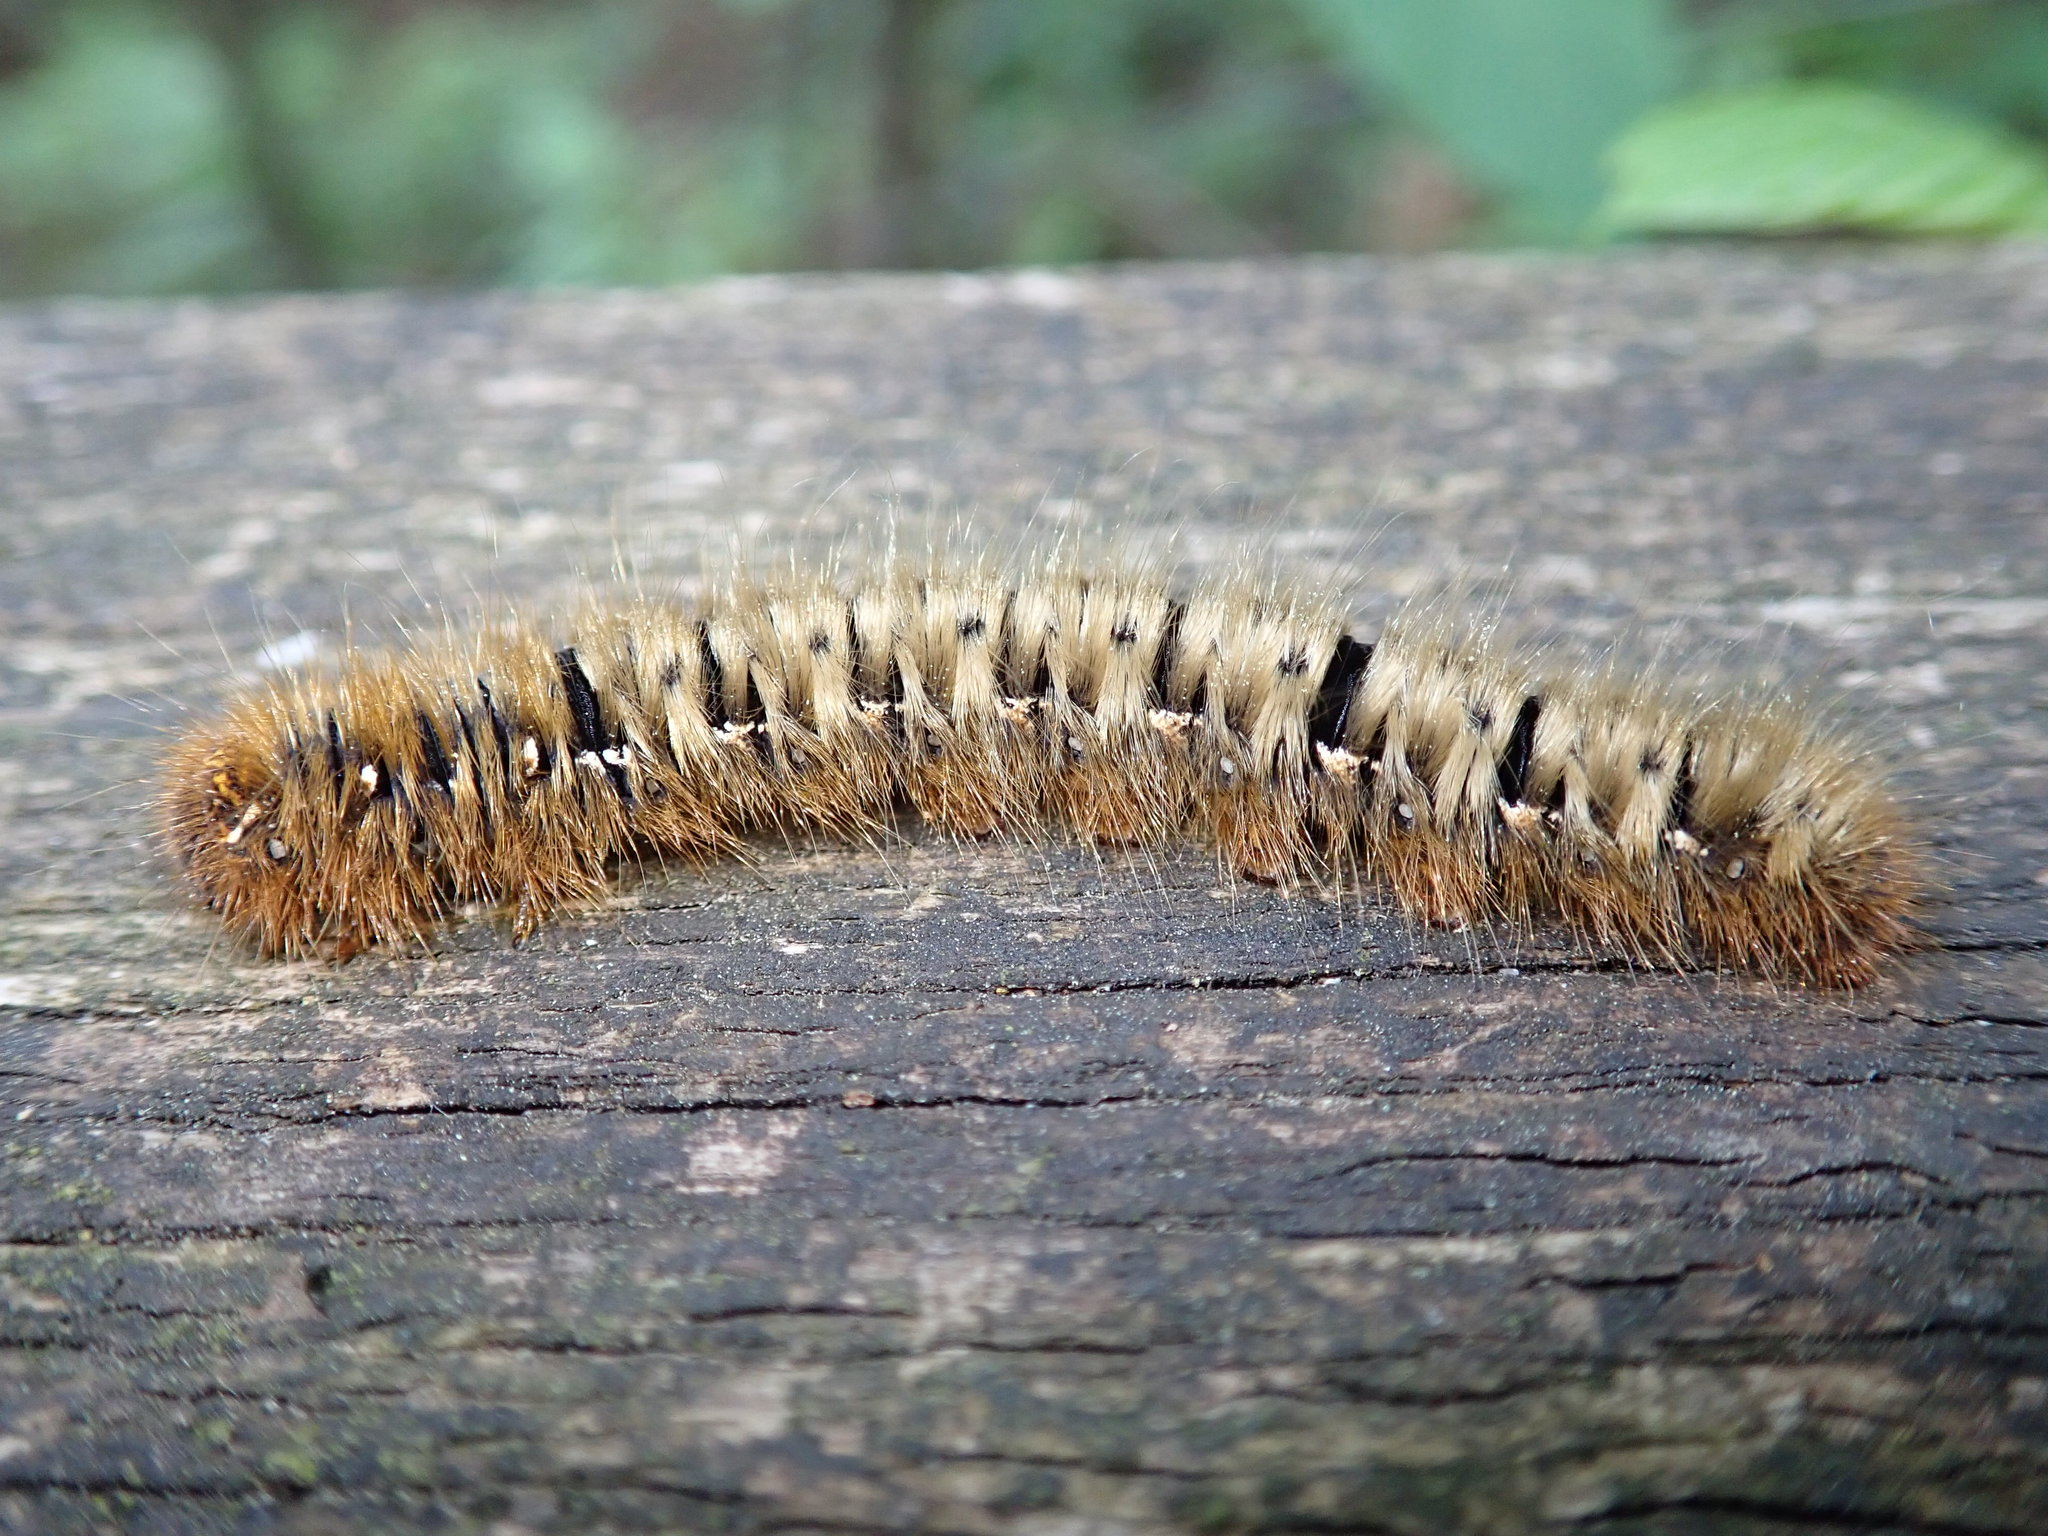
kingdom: Animalia
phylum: Arthropoda
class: Insecta
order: Lepidoptera
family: Lasiocampidae
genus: Lasiocampa
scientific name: Lasiocampa quercus
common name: Oak eggar
